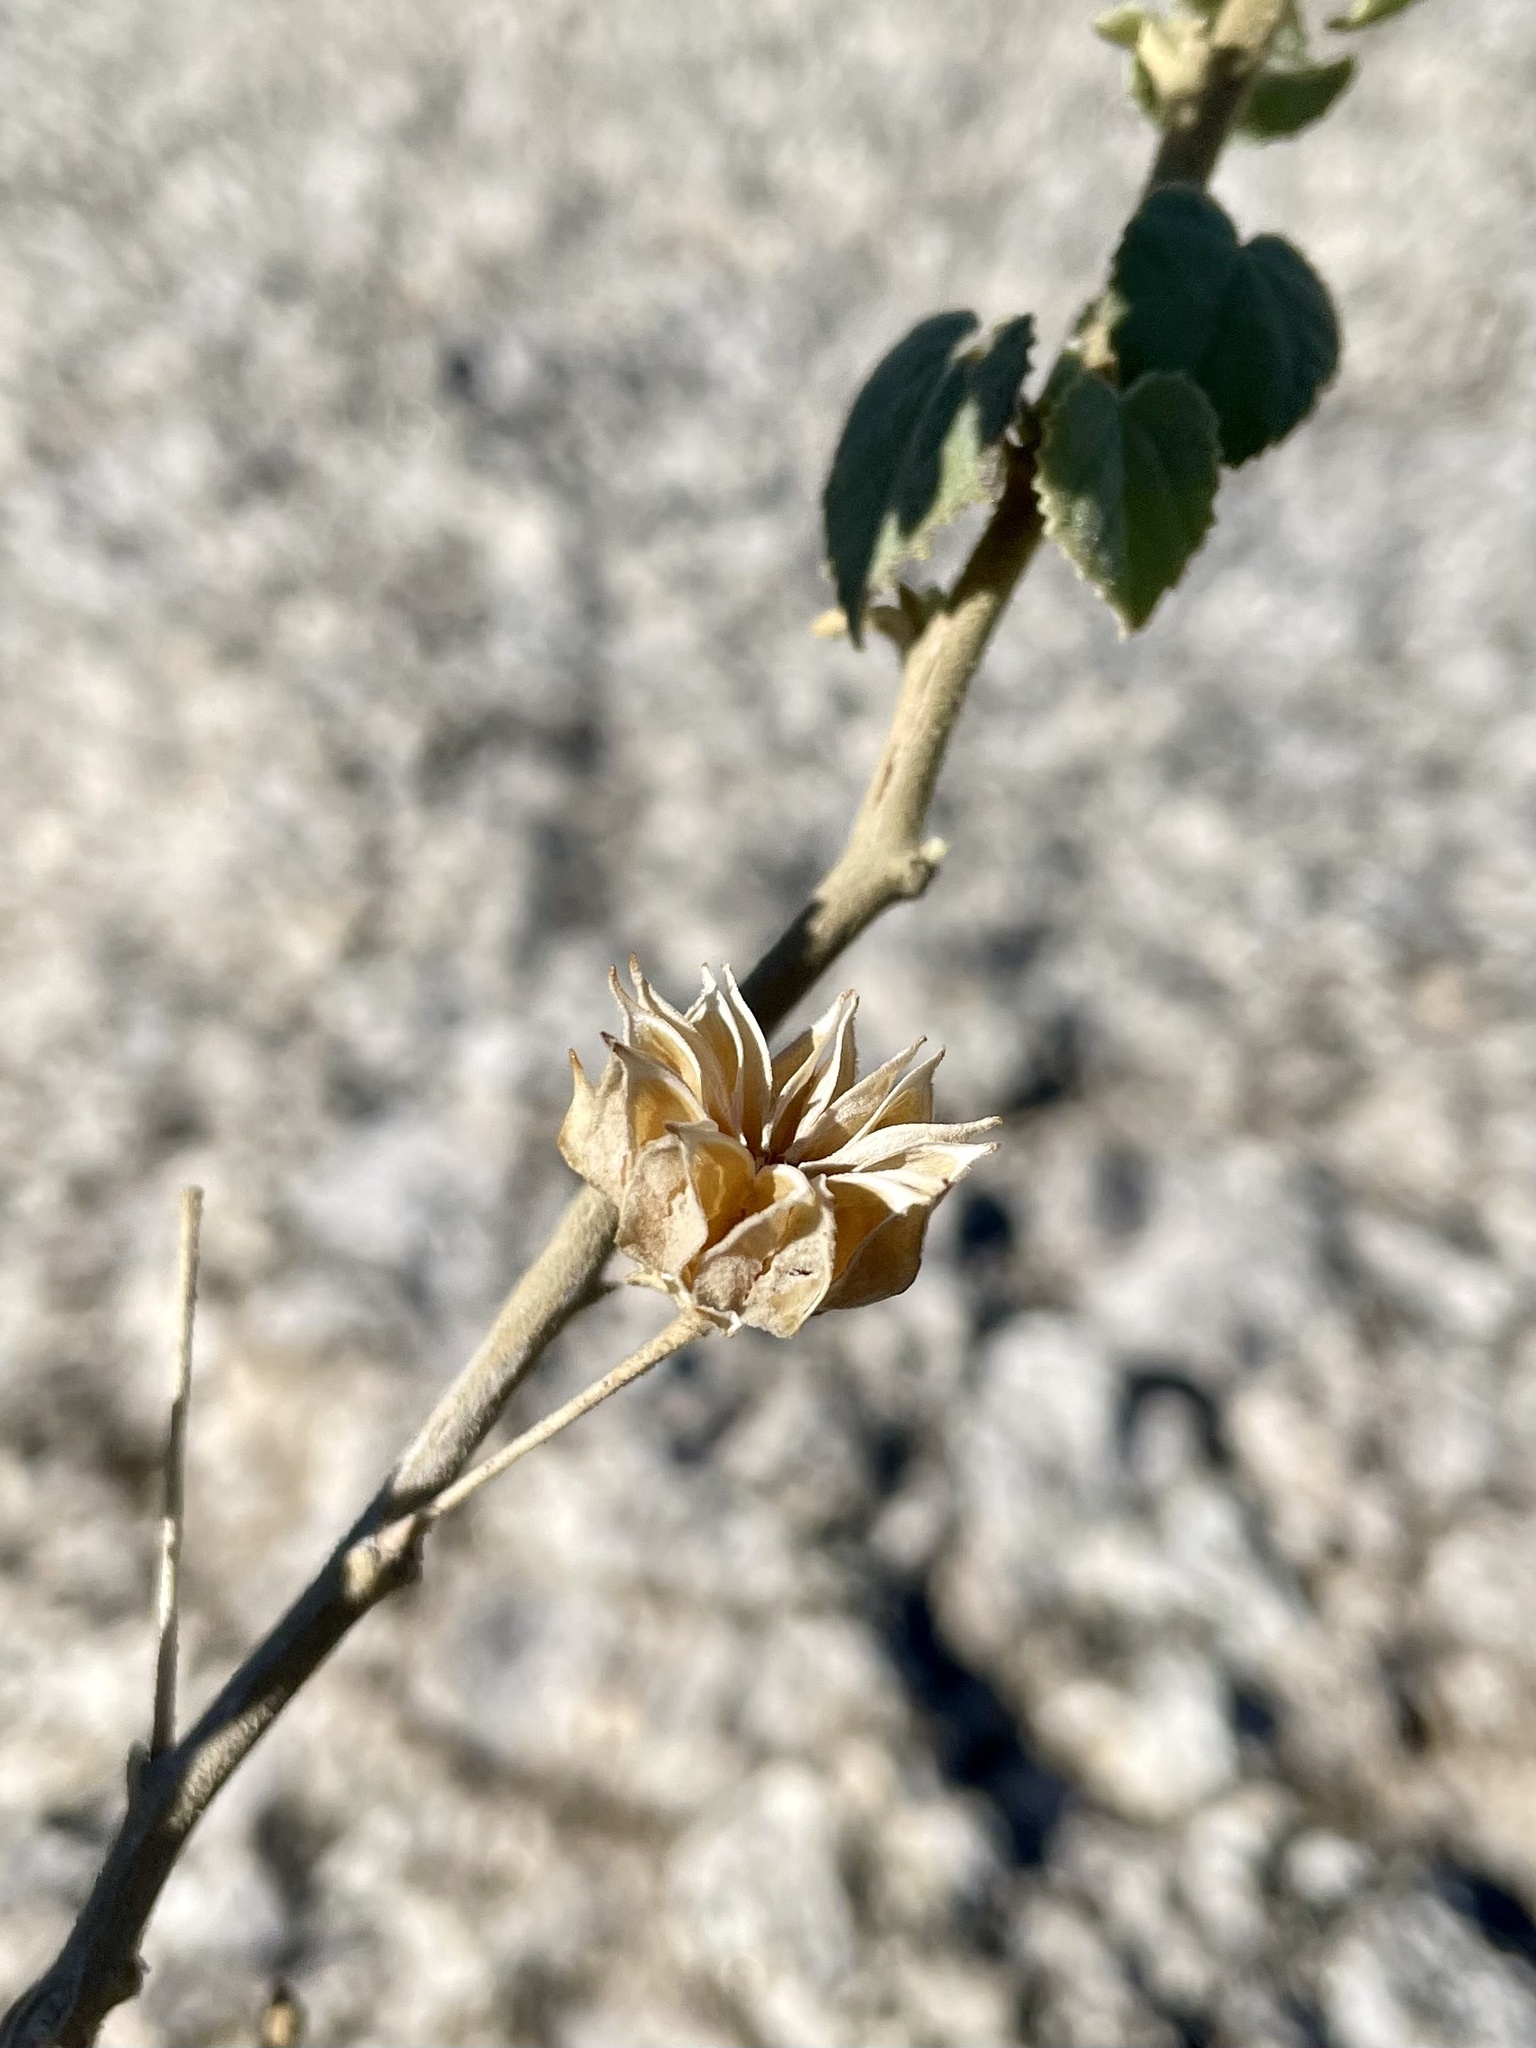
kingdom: Plantae
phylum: Tracheophyta
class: Magnoliopsida
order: Malvales
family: Malvaceae
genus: Abutilon
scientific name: Abutilon abutiloides
